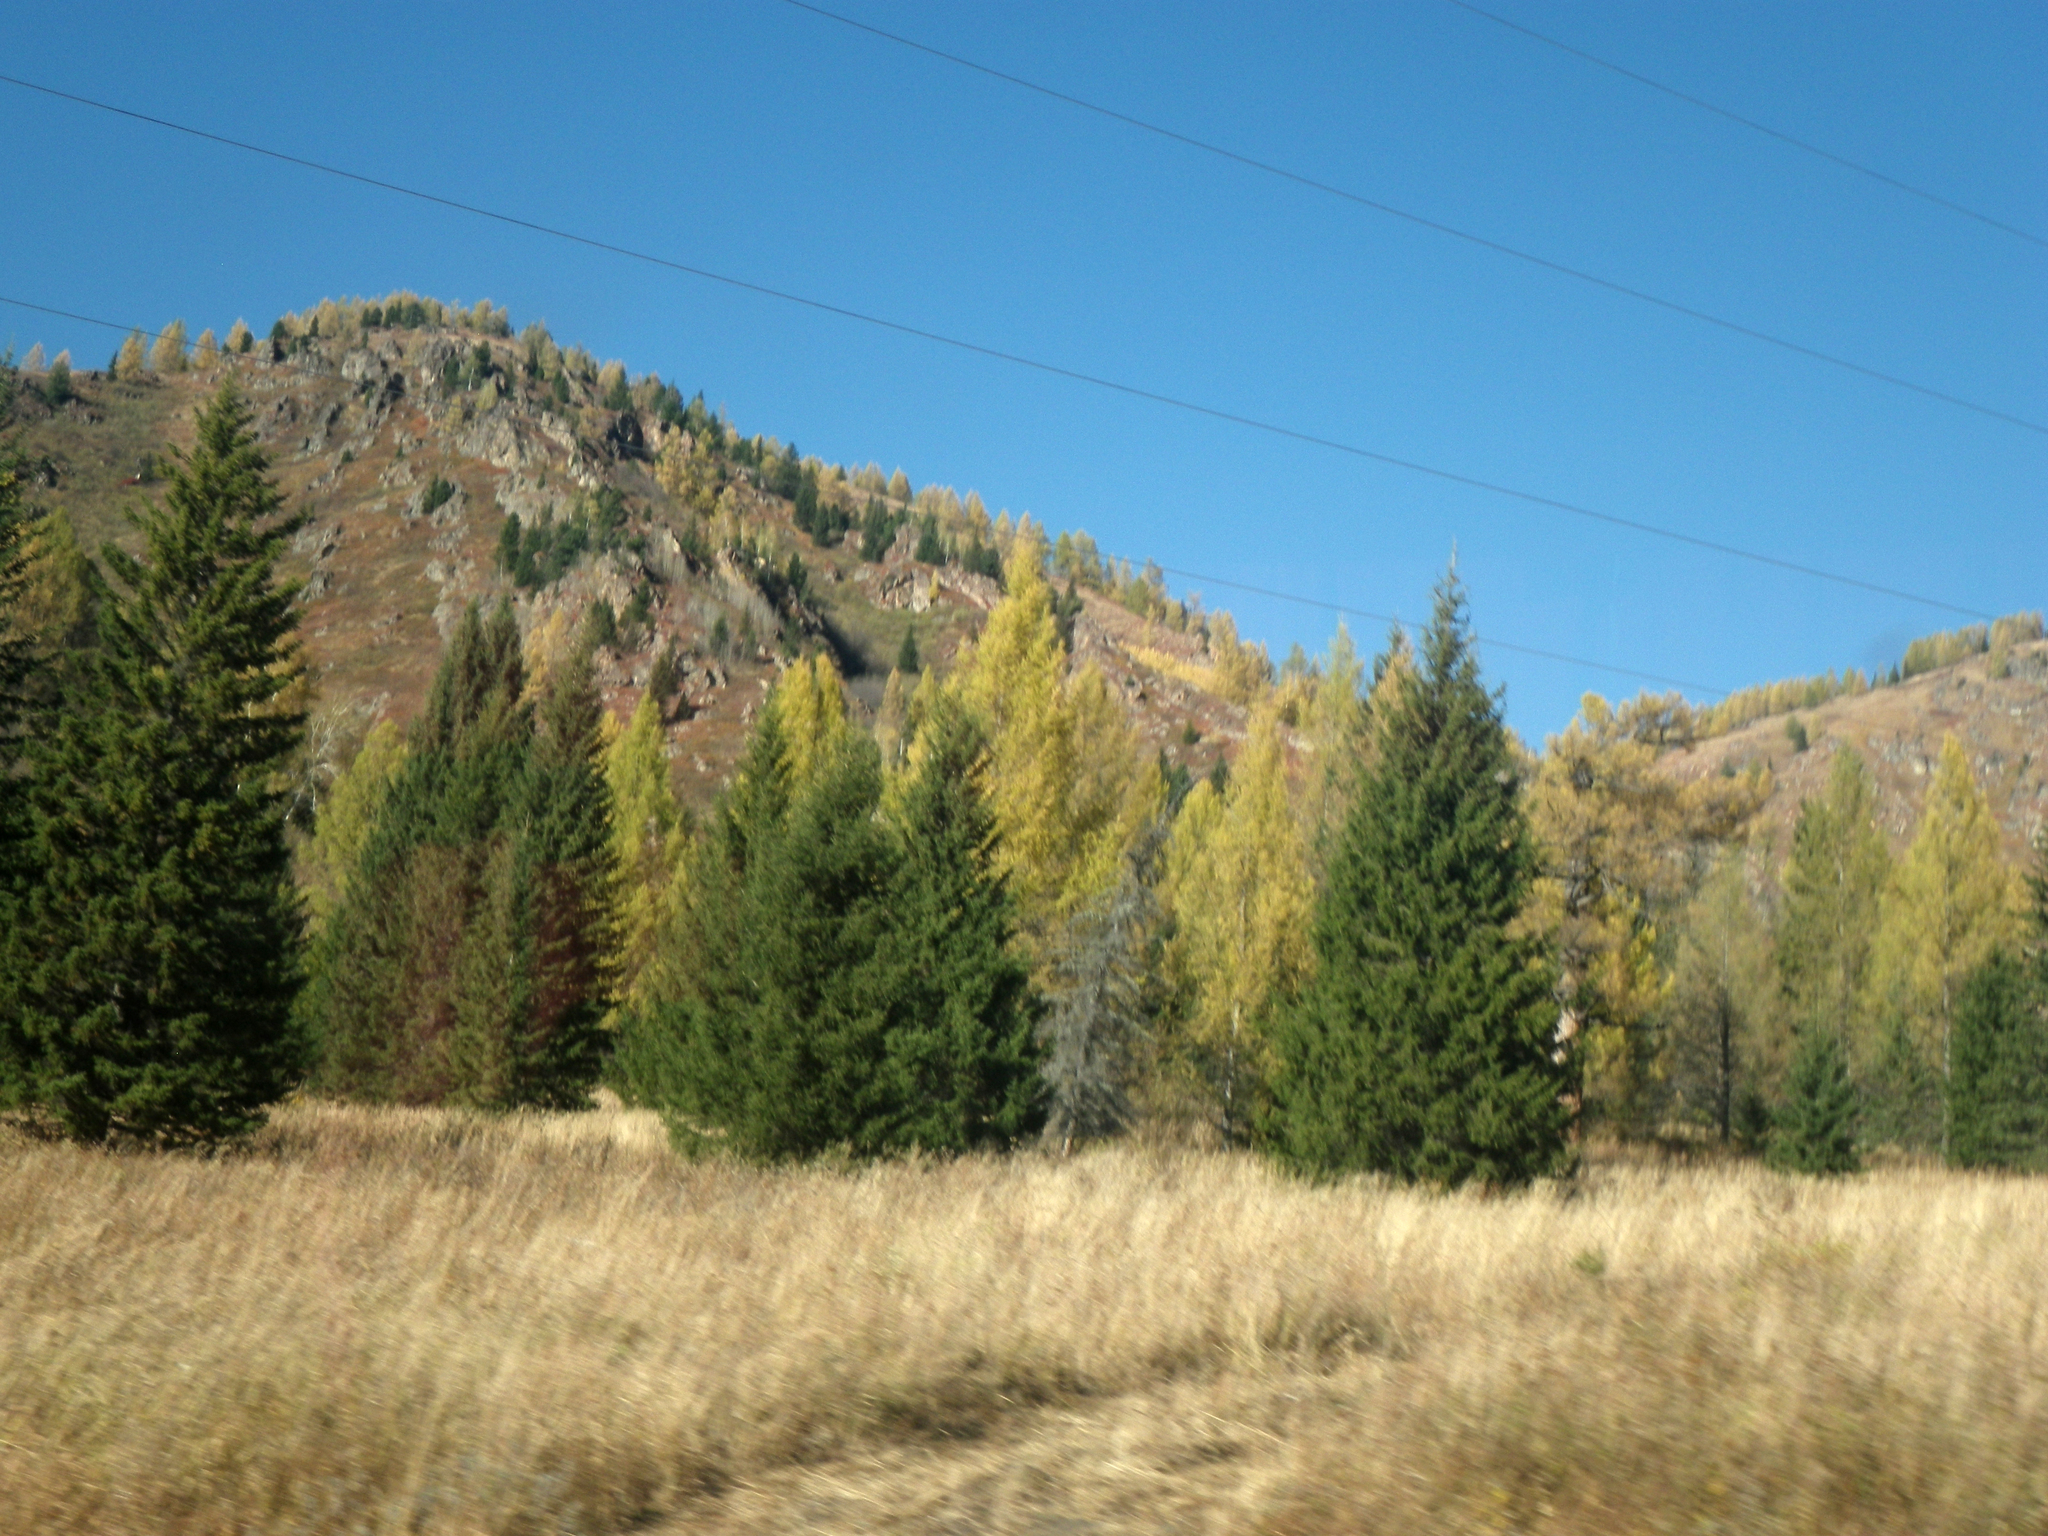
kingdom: Plantae
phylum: Tracheophyta
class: Magnoliopsida
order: Fagales
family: Betulaceae
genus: Betula
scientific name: Betula pendula
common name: Silver birch
